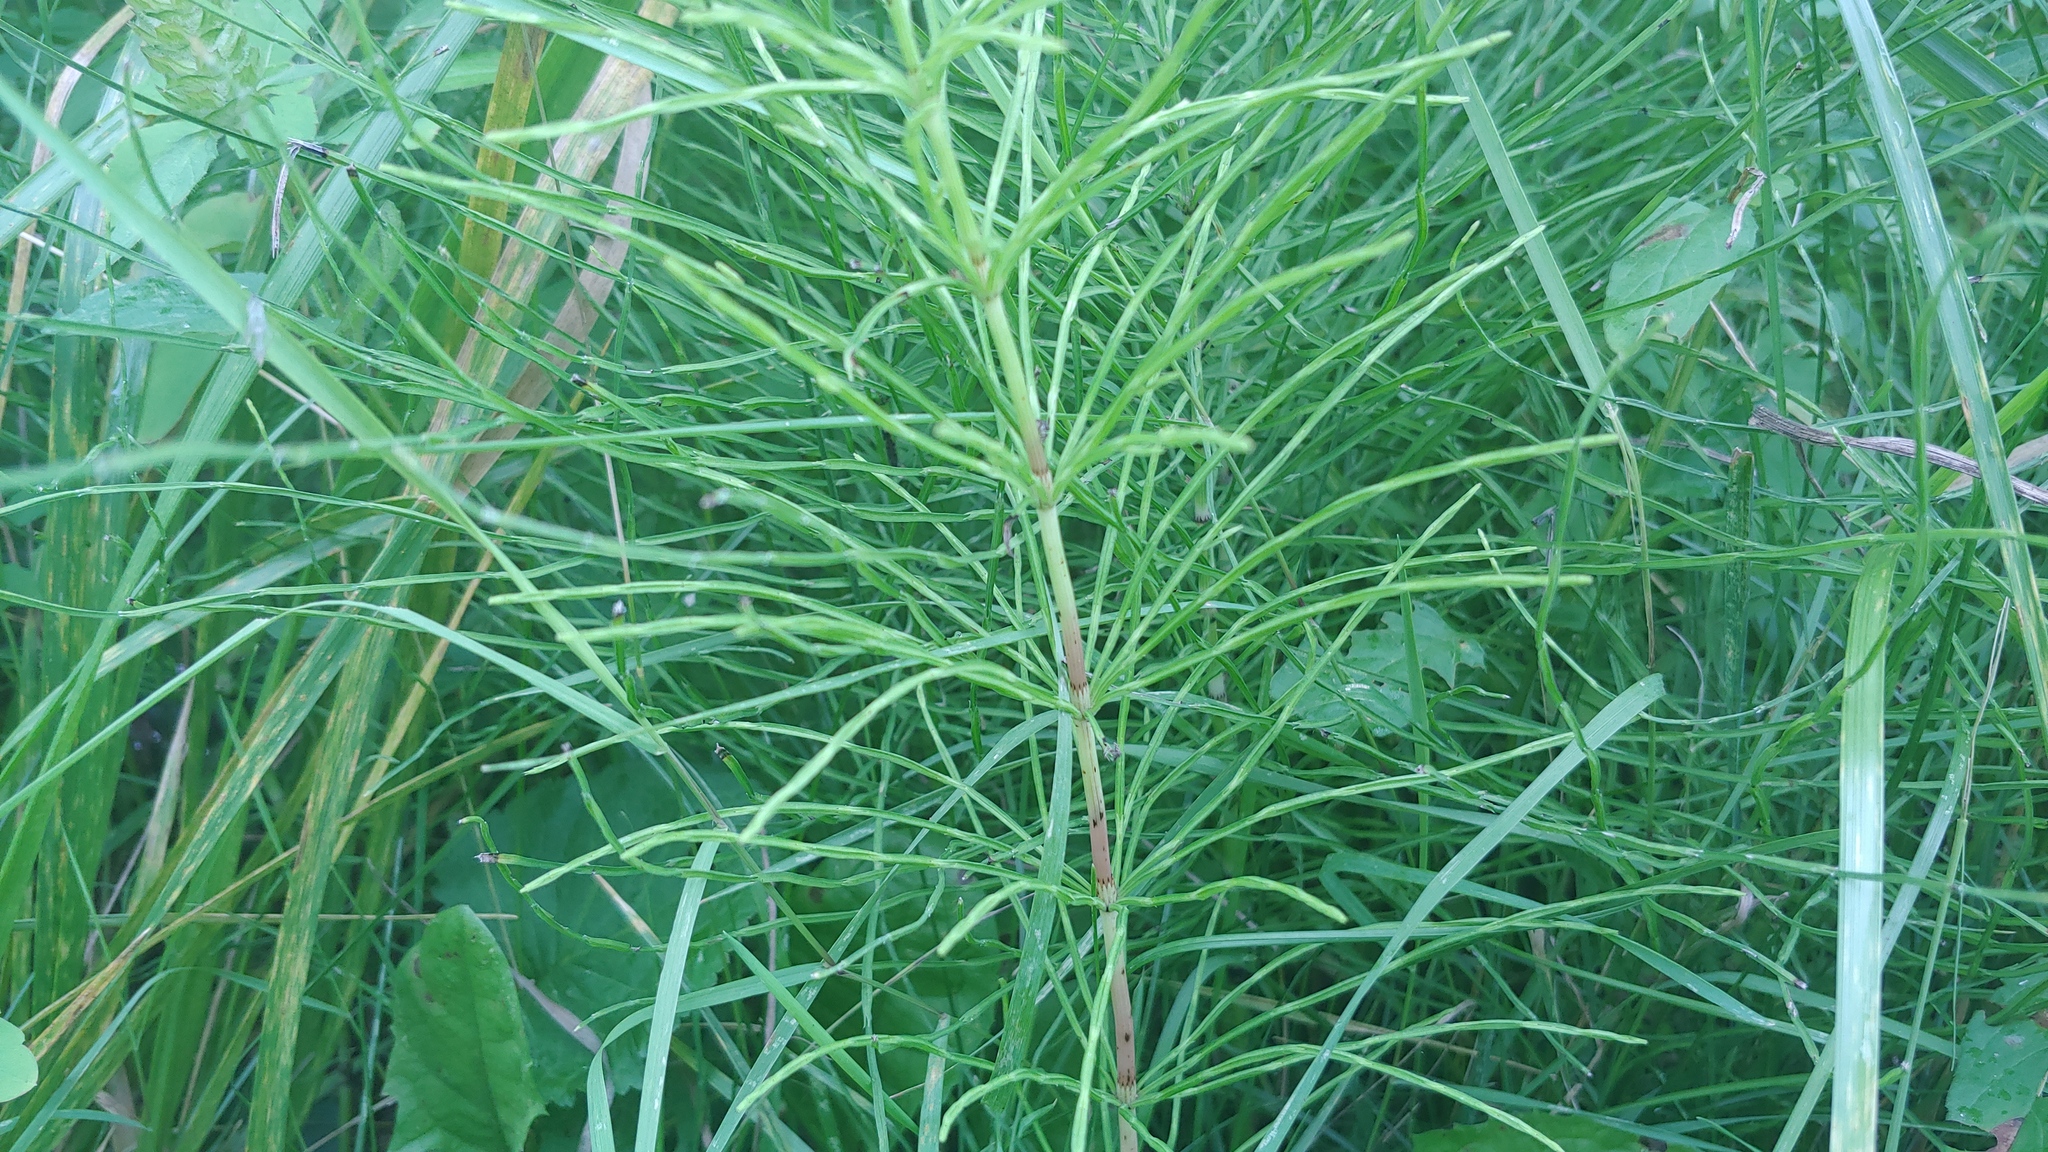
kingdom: Plantae
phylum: Tracheophyta
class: Polypodiopsida
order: Equisetales
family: Equisetaceae
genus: Equisetum
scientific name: Equisetum arvense
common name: Field horsetail
